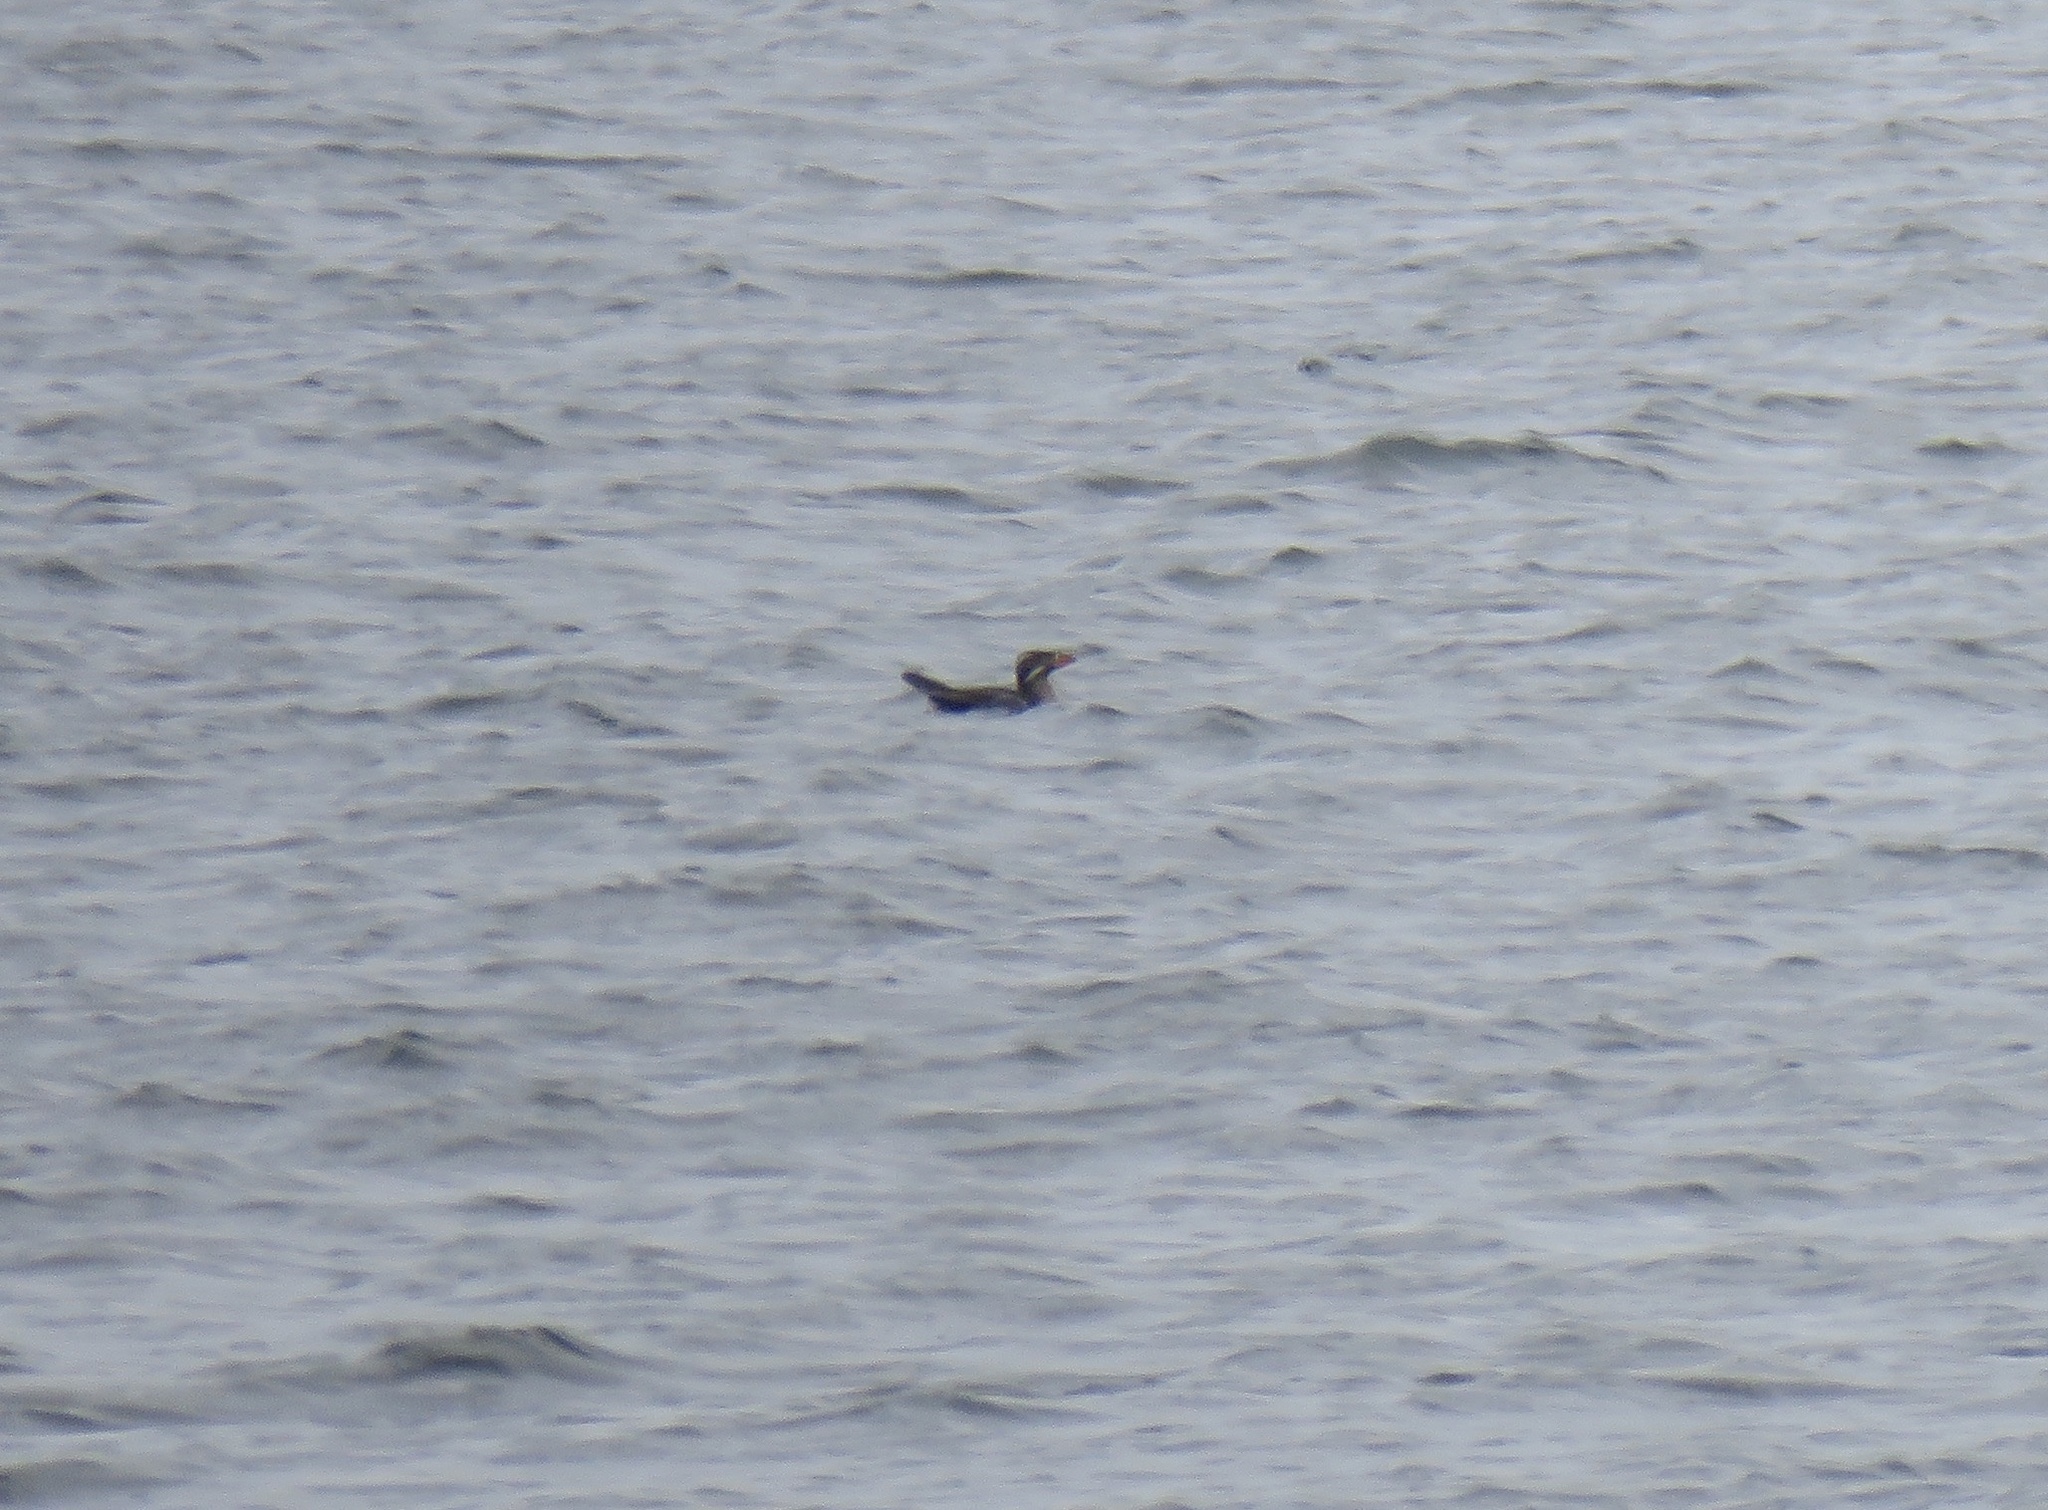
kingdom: Animalia
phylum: Chordata
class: Aves
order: Charadriiformes
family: Alcidae
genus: Cerorhinca
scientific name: Cerorhinca monocerata
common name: Rhinoceros auklet
